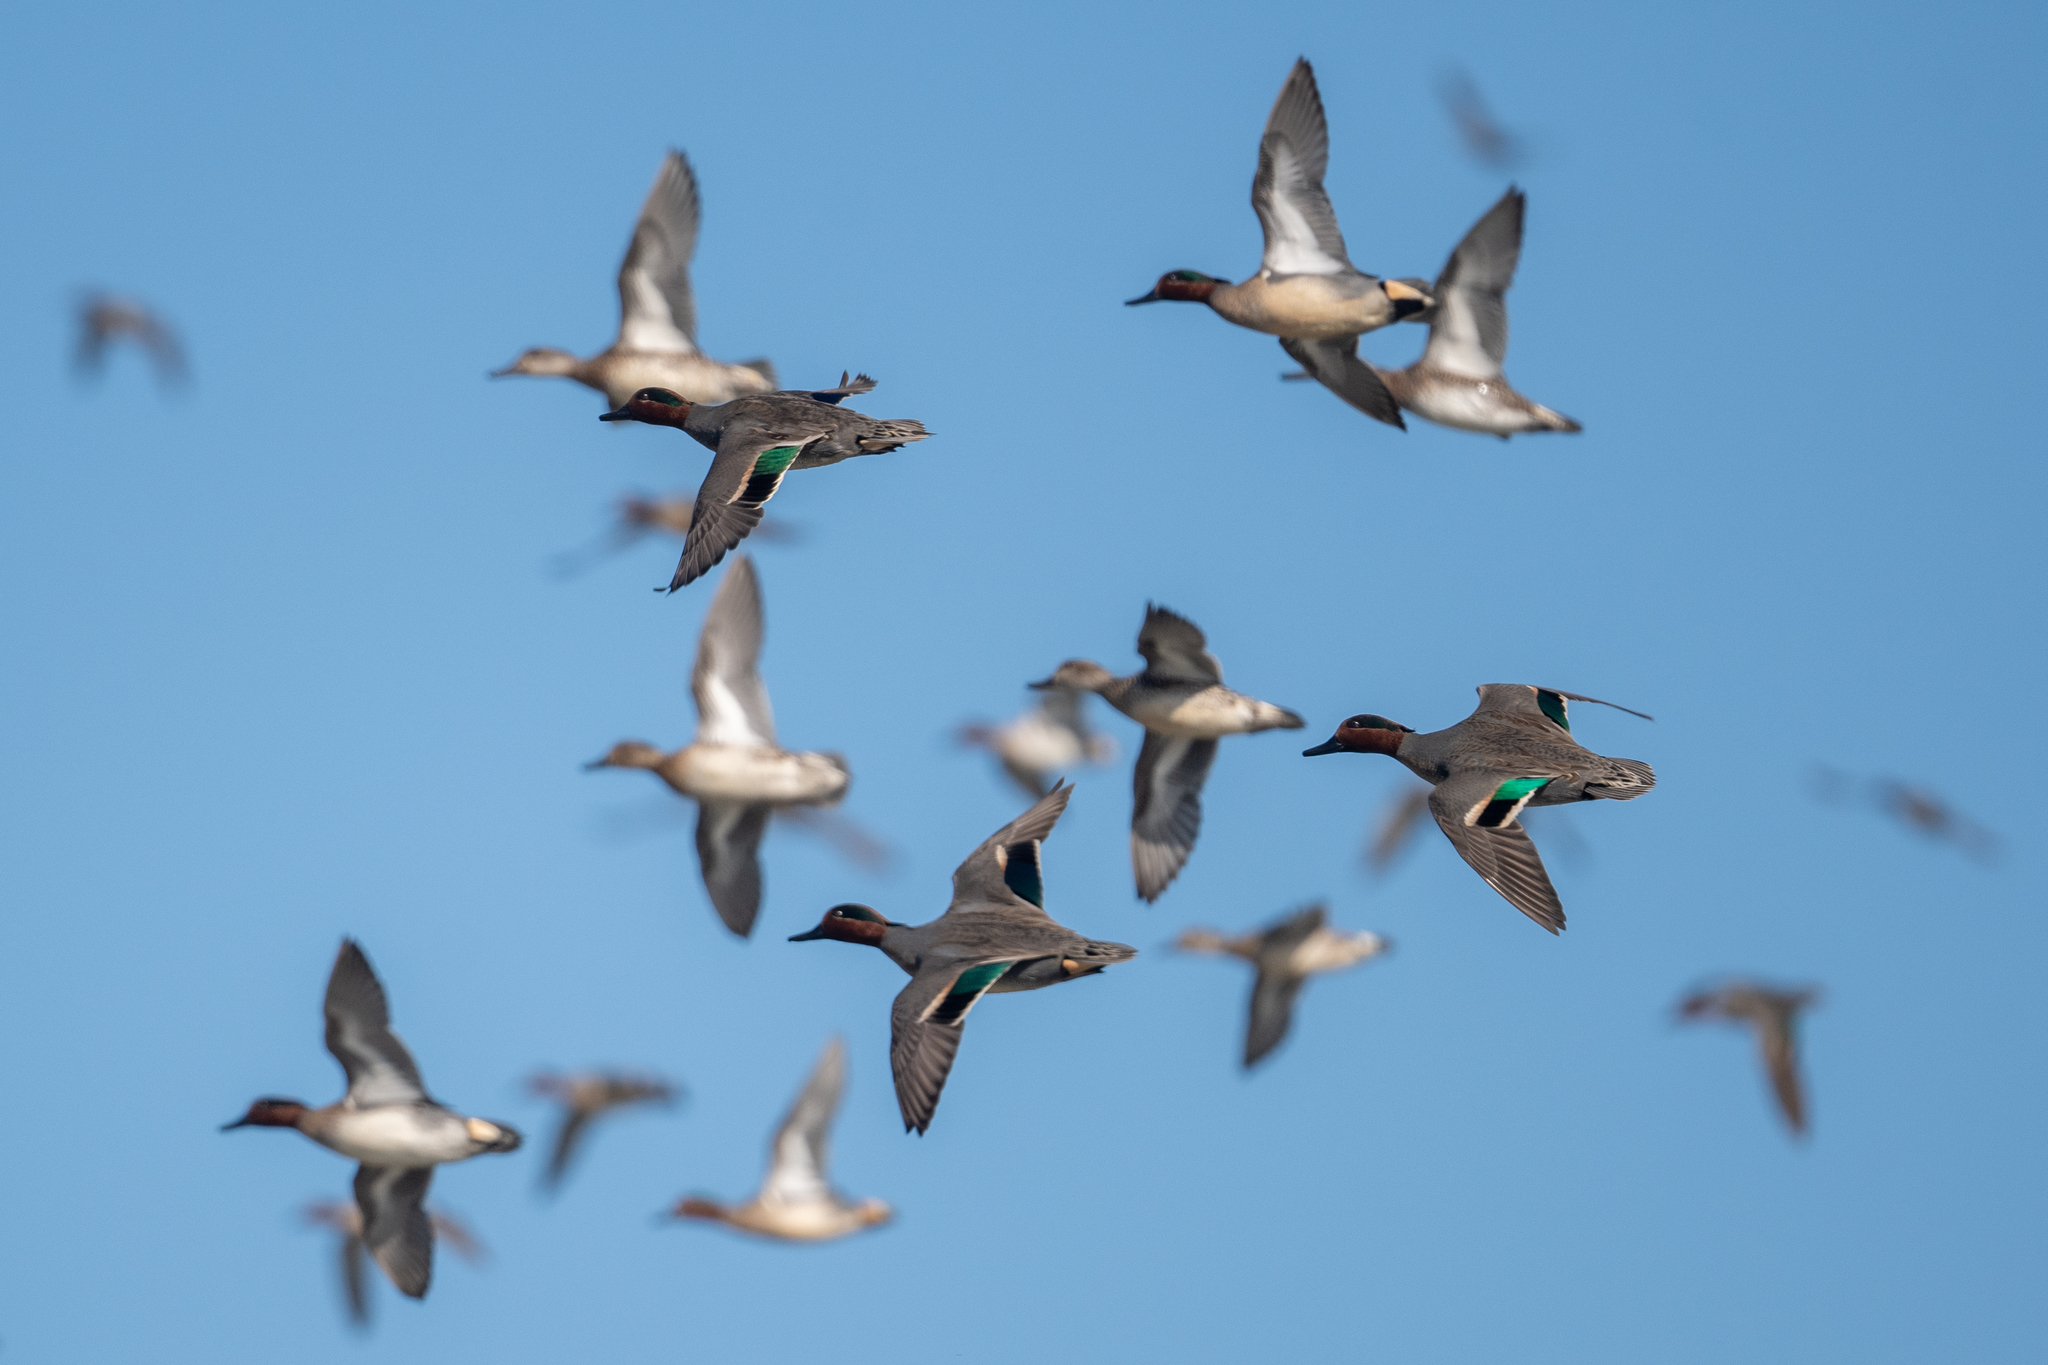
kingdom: Animalia
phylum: Chordata
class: Aves
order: Anseriformes
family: Anatidae
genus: Anas
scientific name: Anas crecca
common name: Eurasian teal
